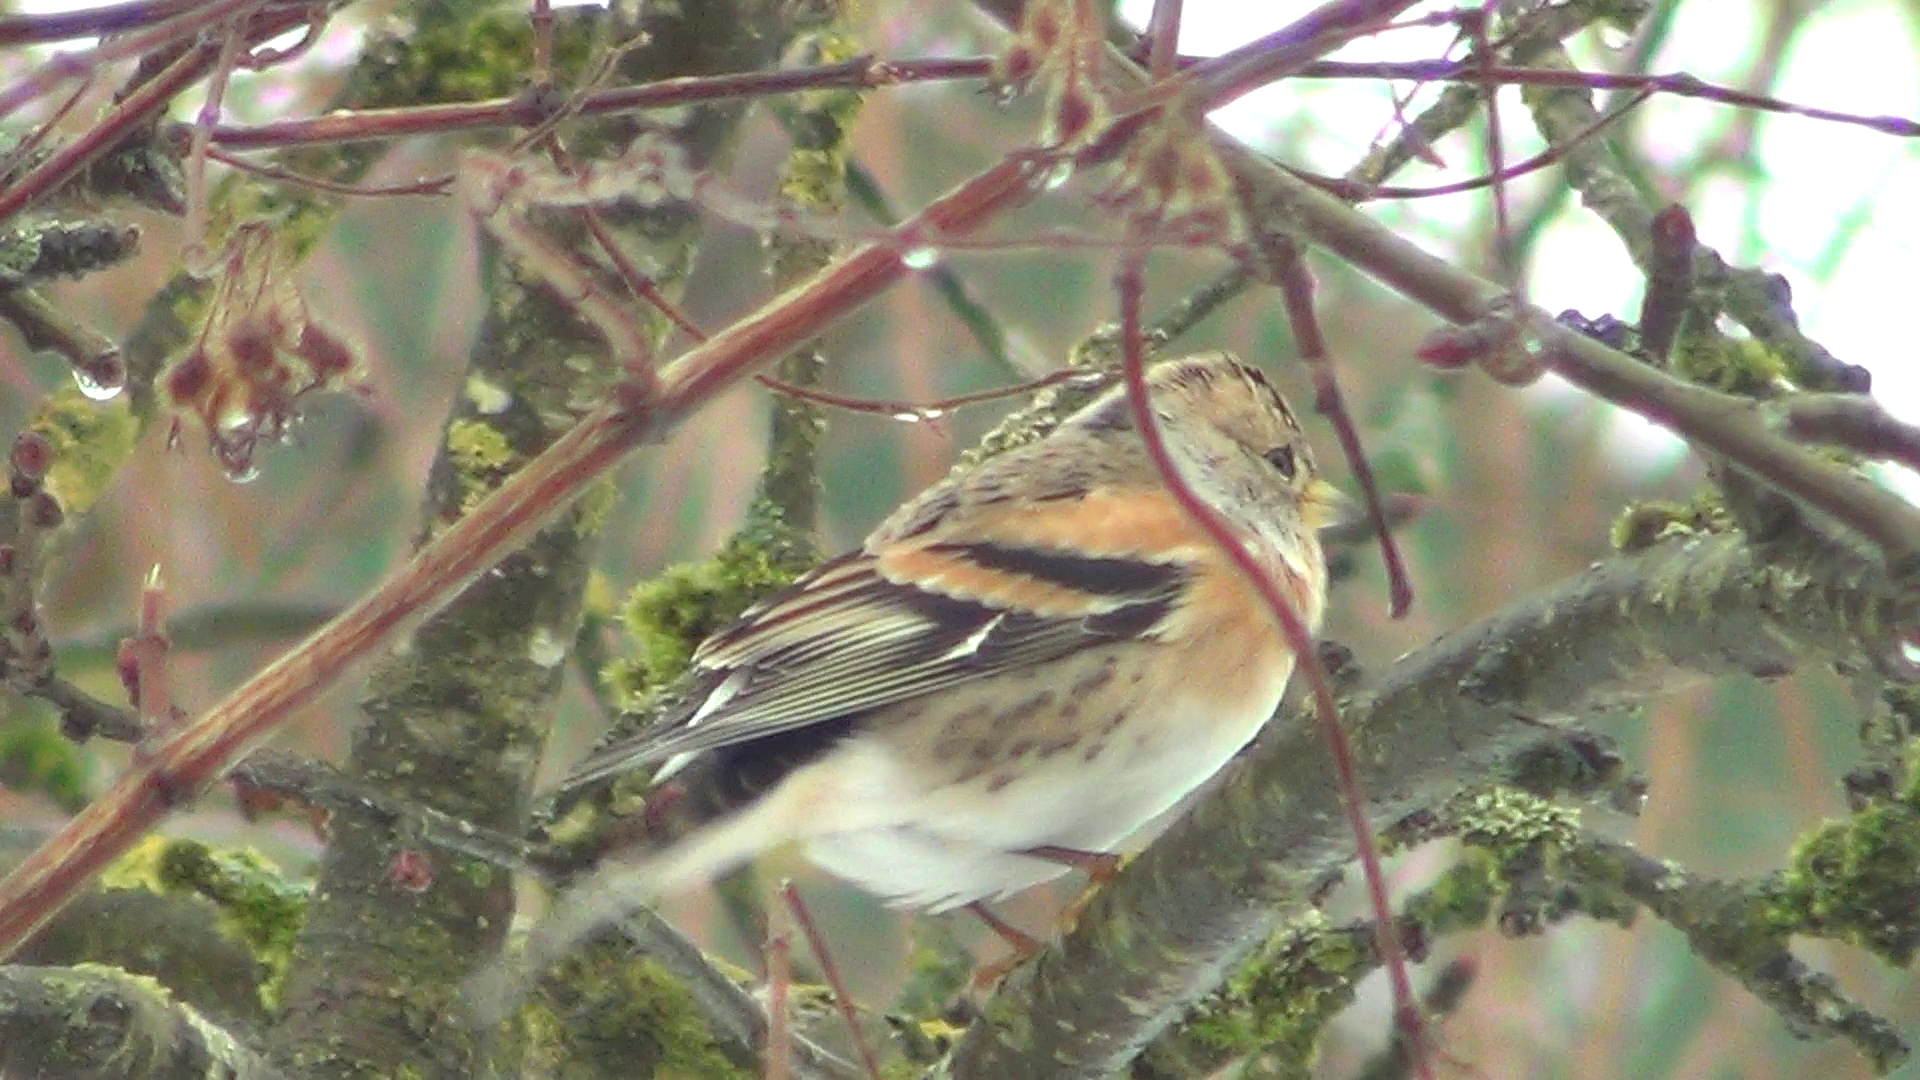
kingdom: Animalia
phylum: Chordata
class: Aves
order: Passeriformes
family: Fringillidae
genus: Fringilla
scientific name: Fringilla montifringilla
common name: Brambling
